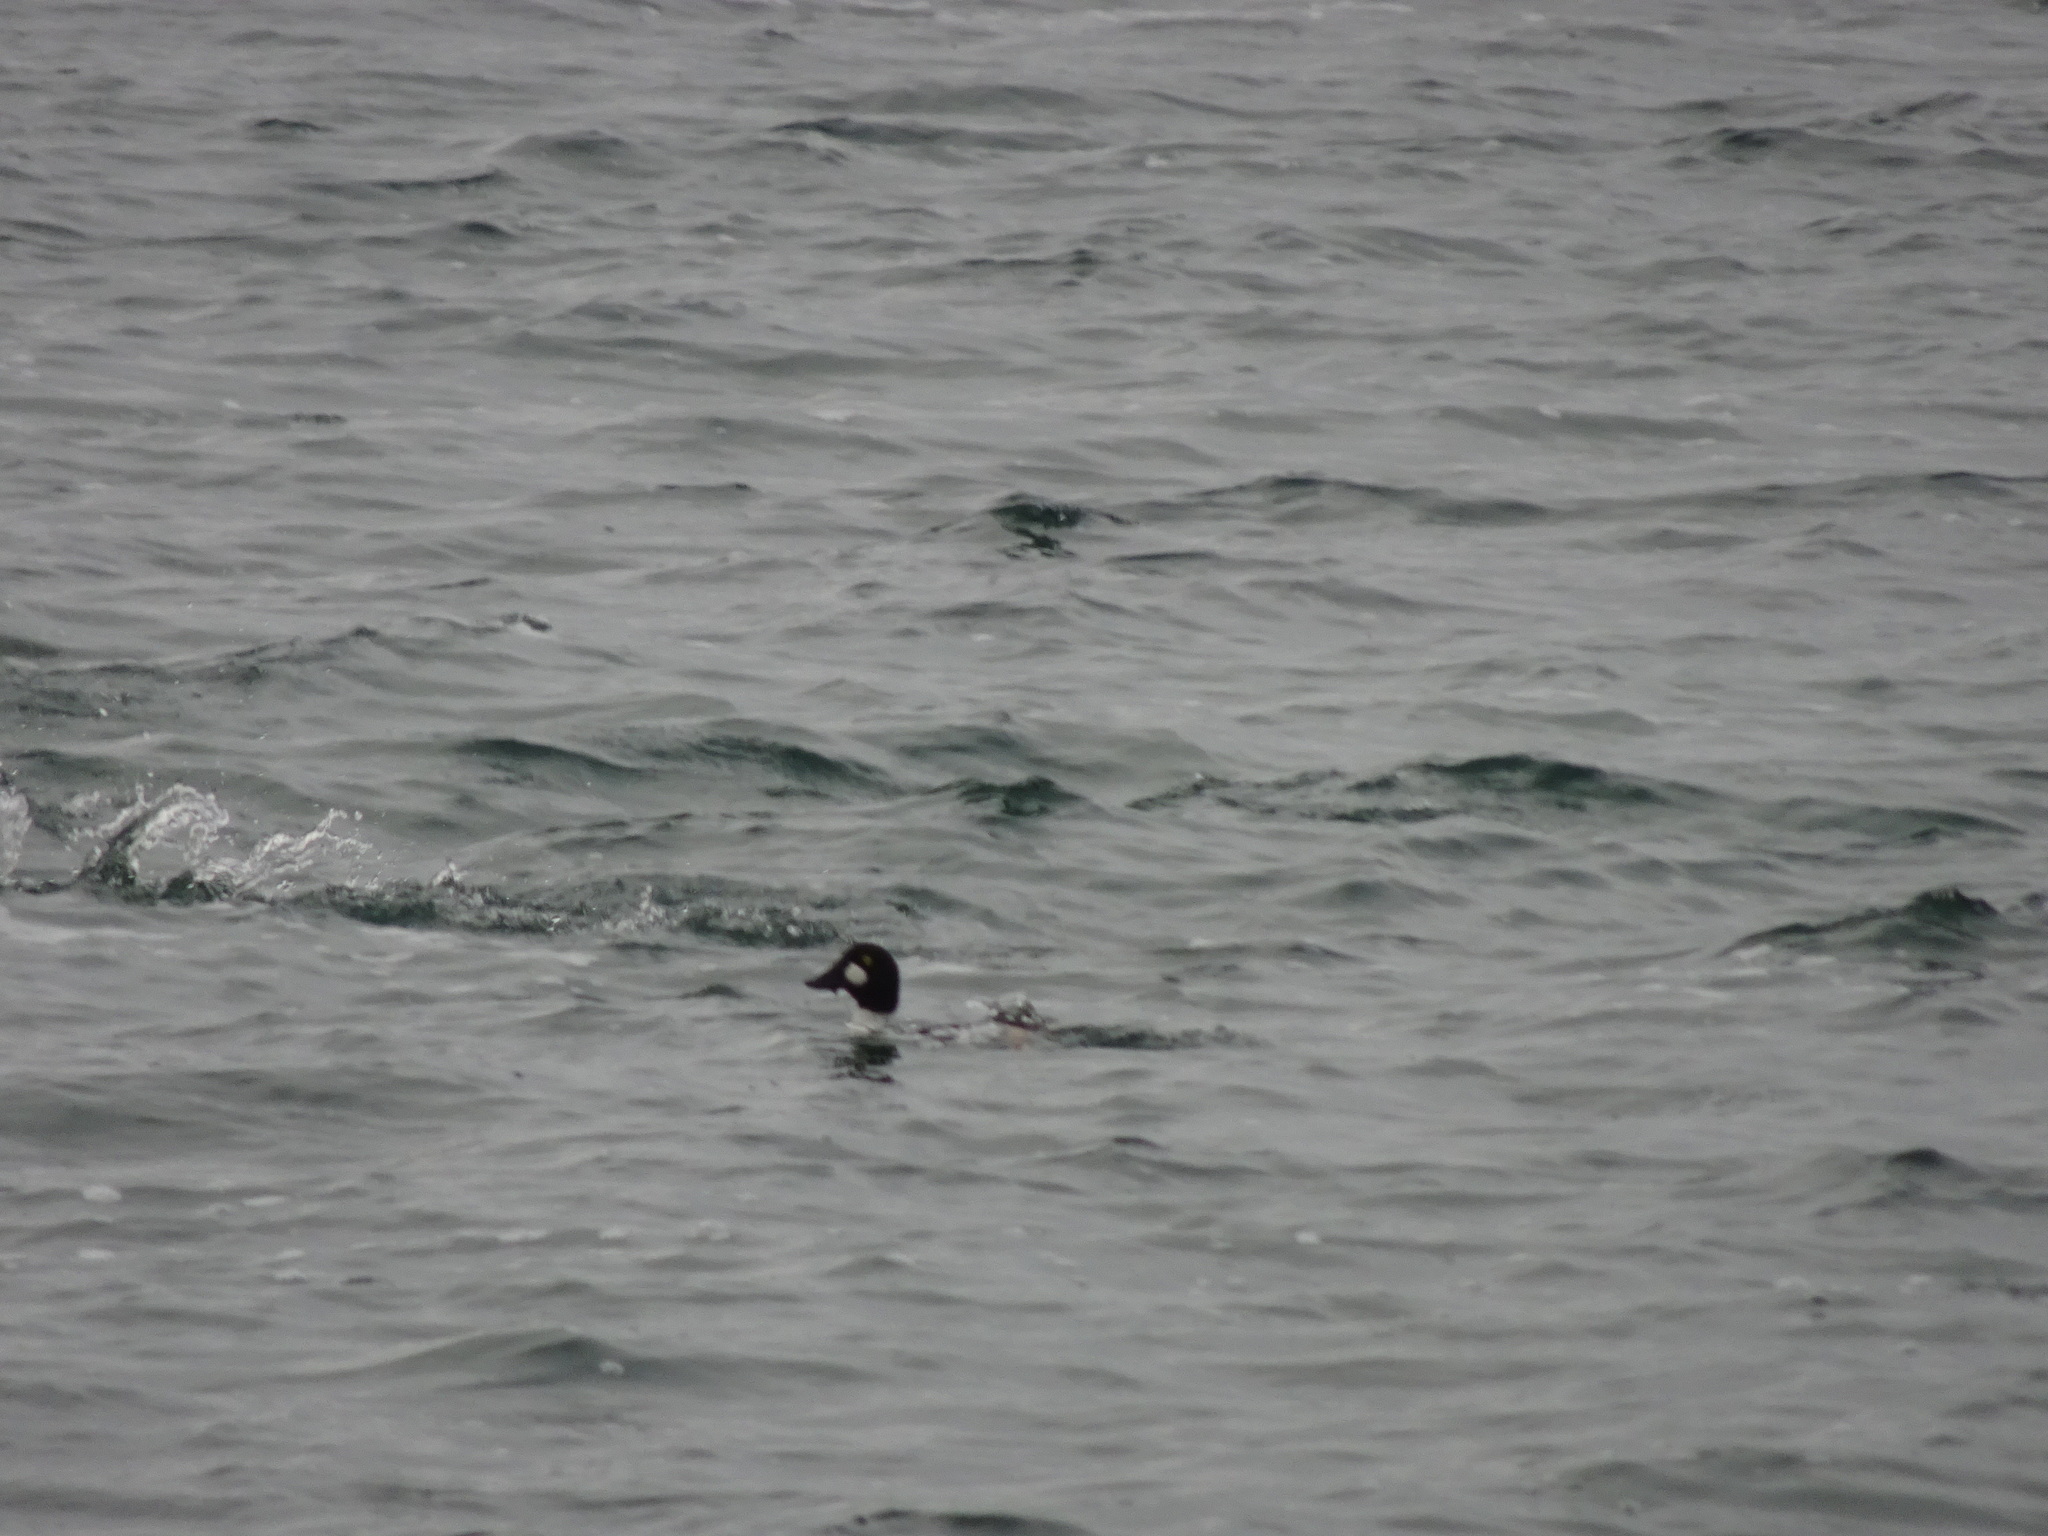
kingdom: Animalia
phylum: Chordata
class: Aves
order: Anseriformes
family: Anatidae
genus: Bucephala
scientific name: Bucephala clangula
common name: Common goldeneye
